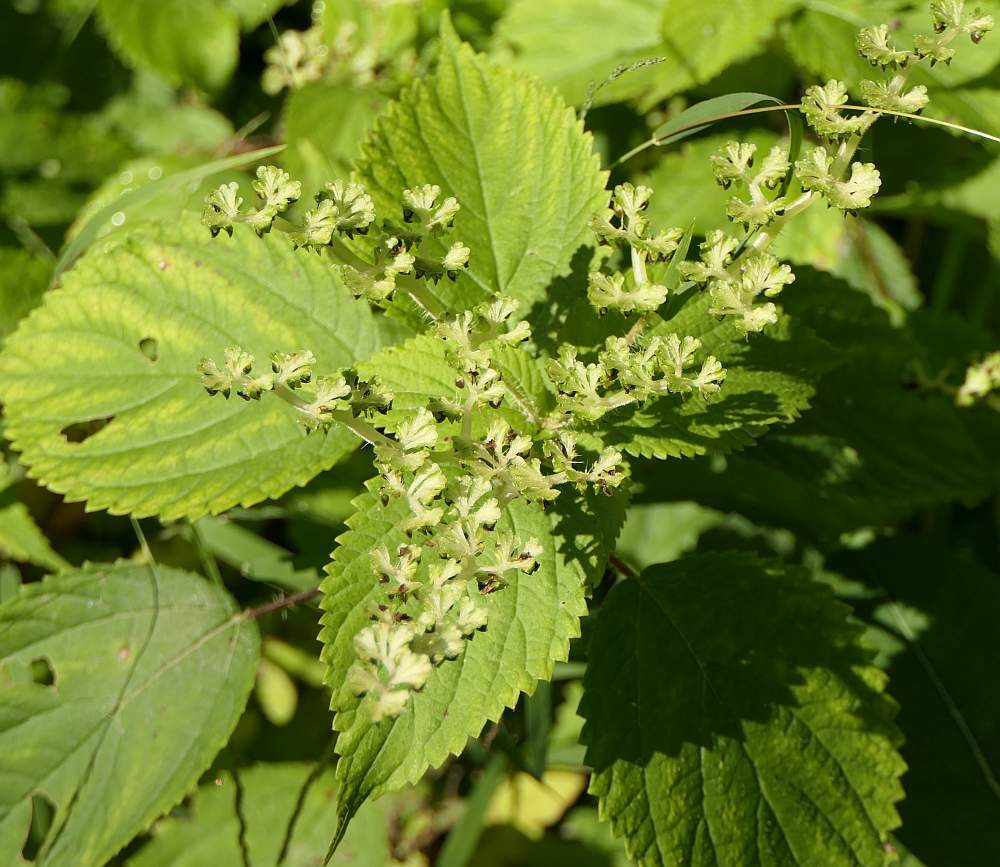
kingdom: Plantae
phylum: Tracheophyta
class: Magnoliopsida
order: Rosales
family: Urticaceae
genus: Laportea
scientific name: Laportea canadensis
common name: Canada nettle
